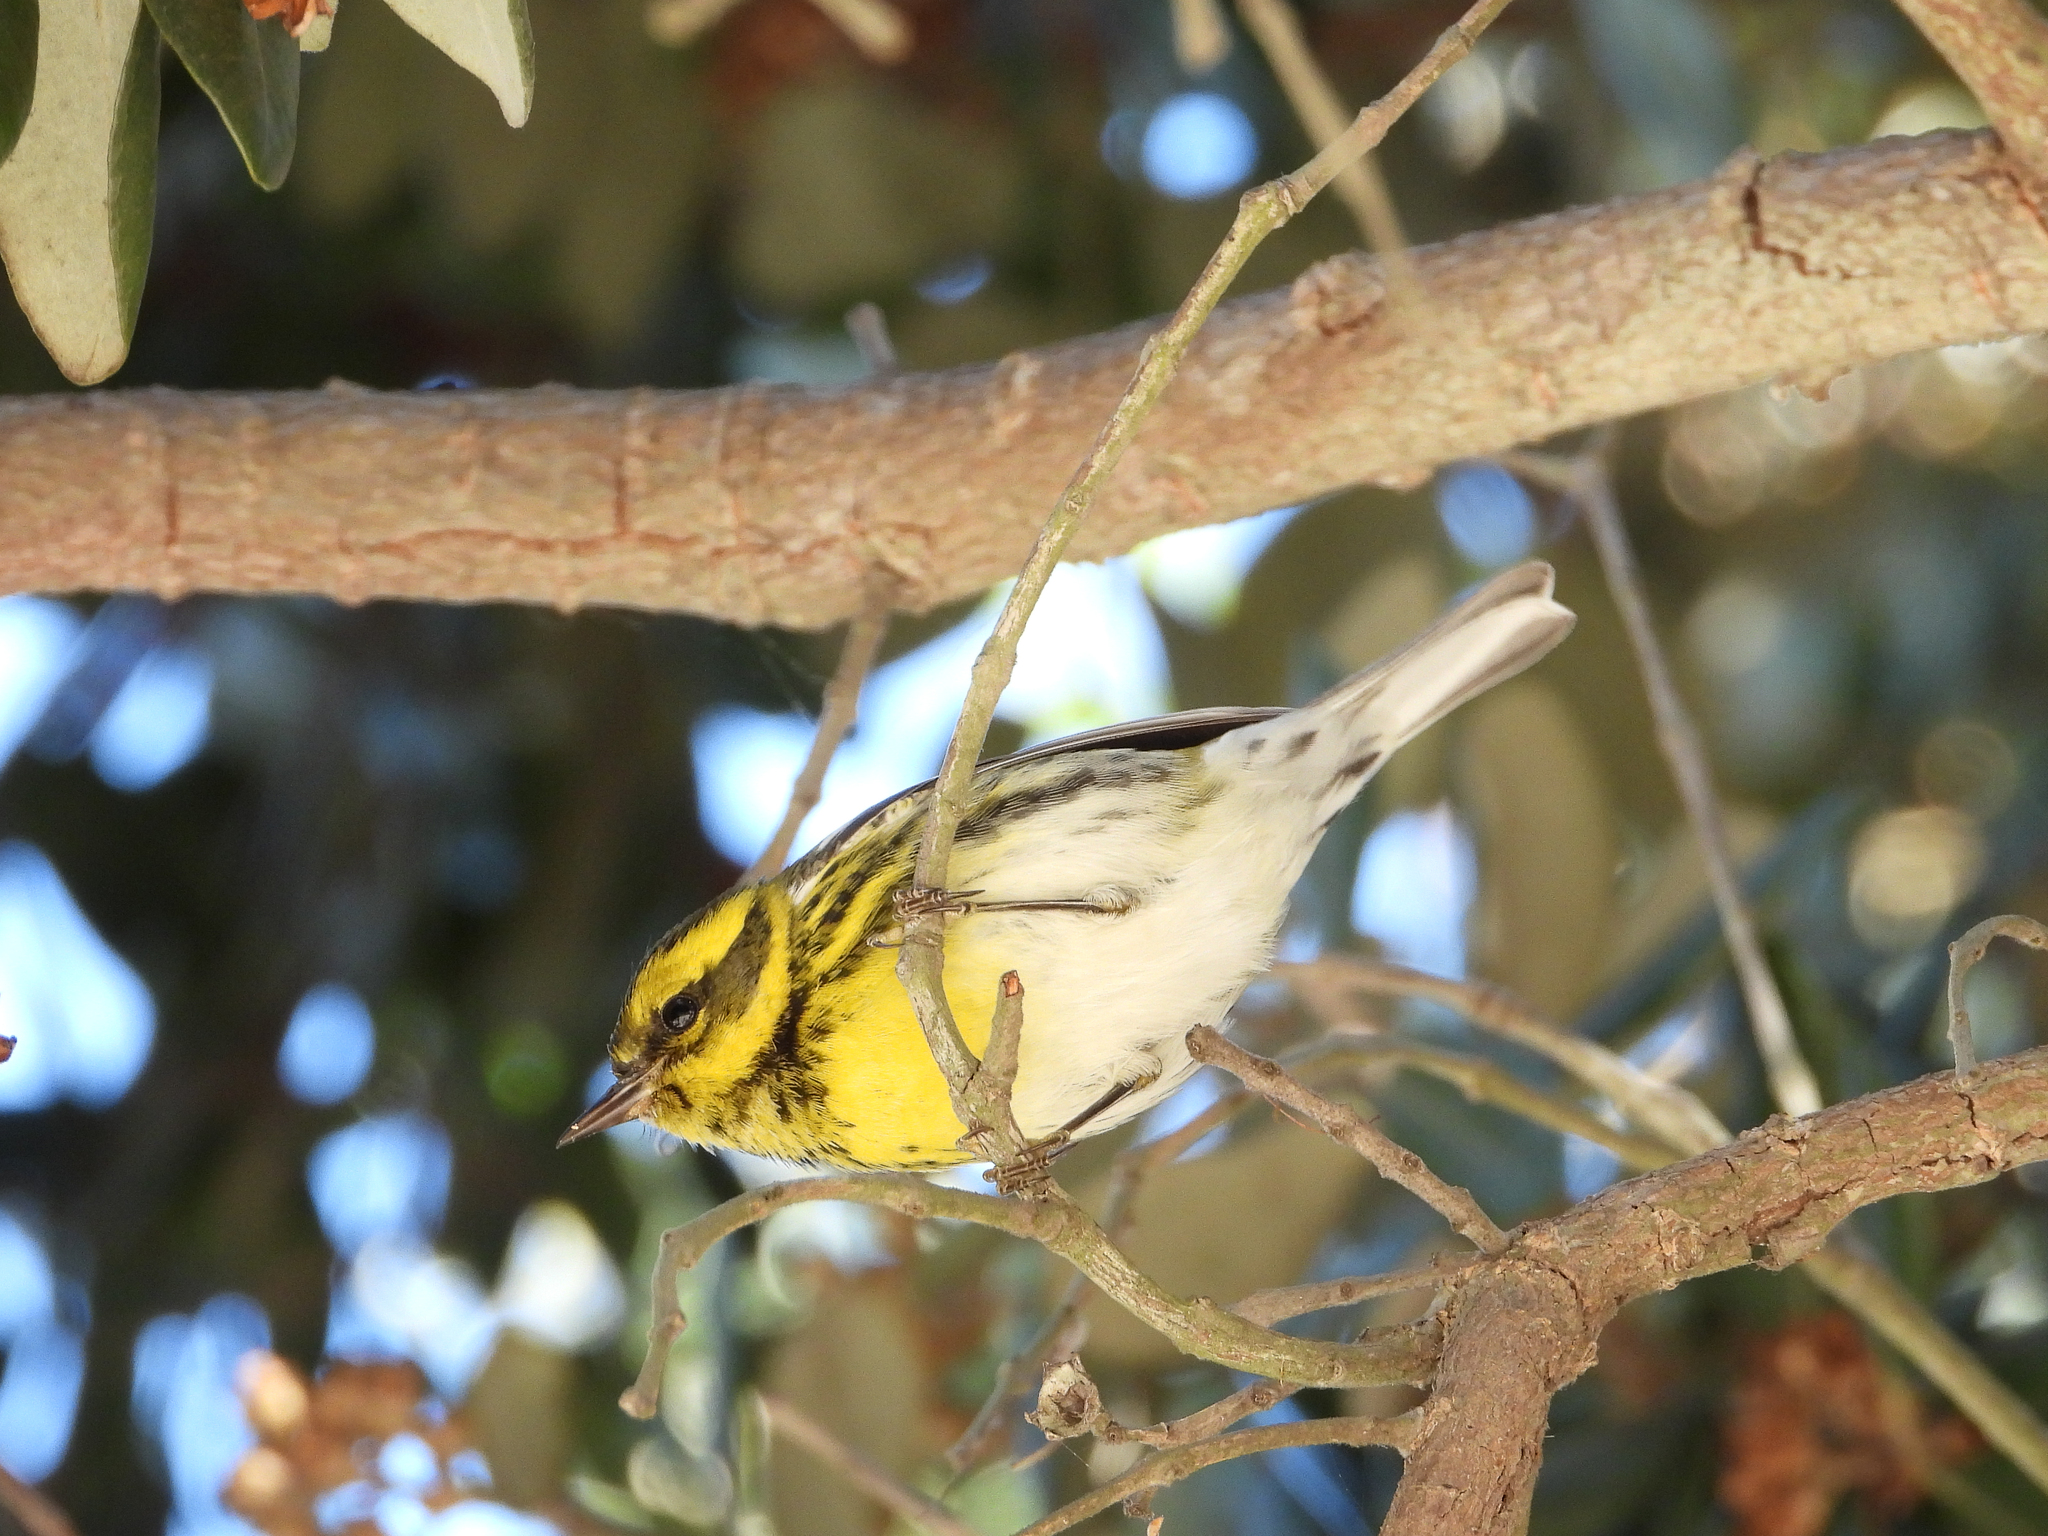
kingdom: Animalia
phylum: Chordata
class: Aves
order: Passeriformes
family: Parulidae
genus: Setophaga
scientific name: Setophaga townsendi
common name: Townsend's warbler
